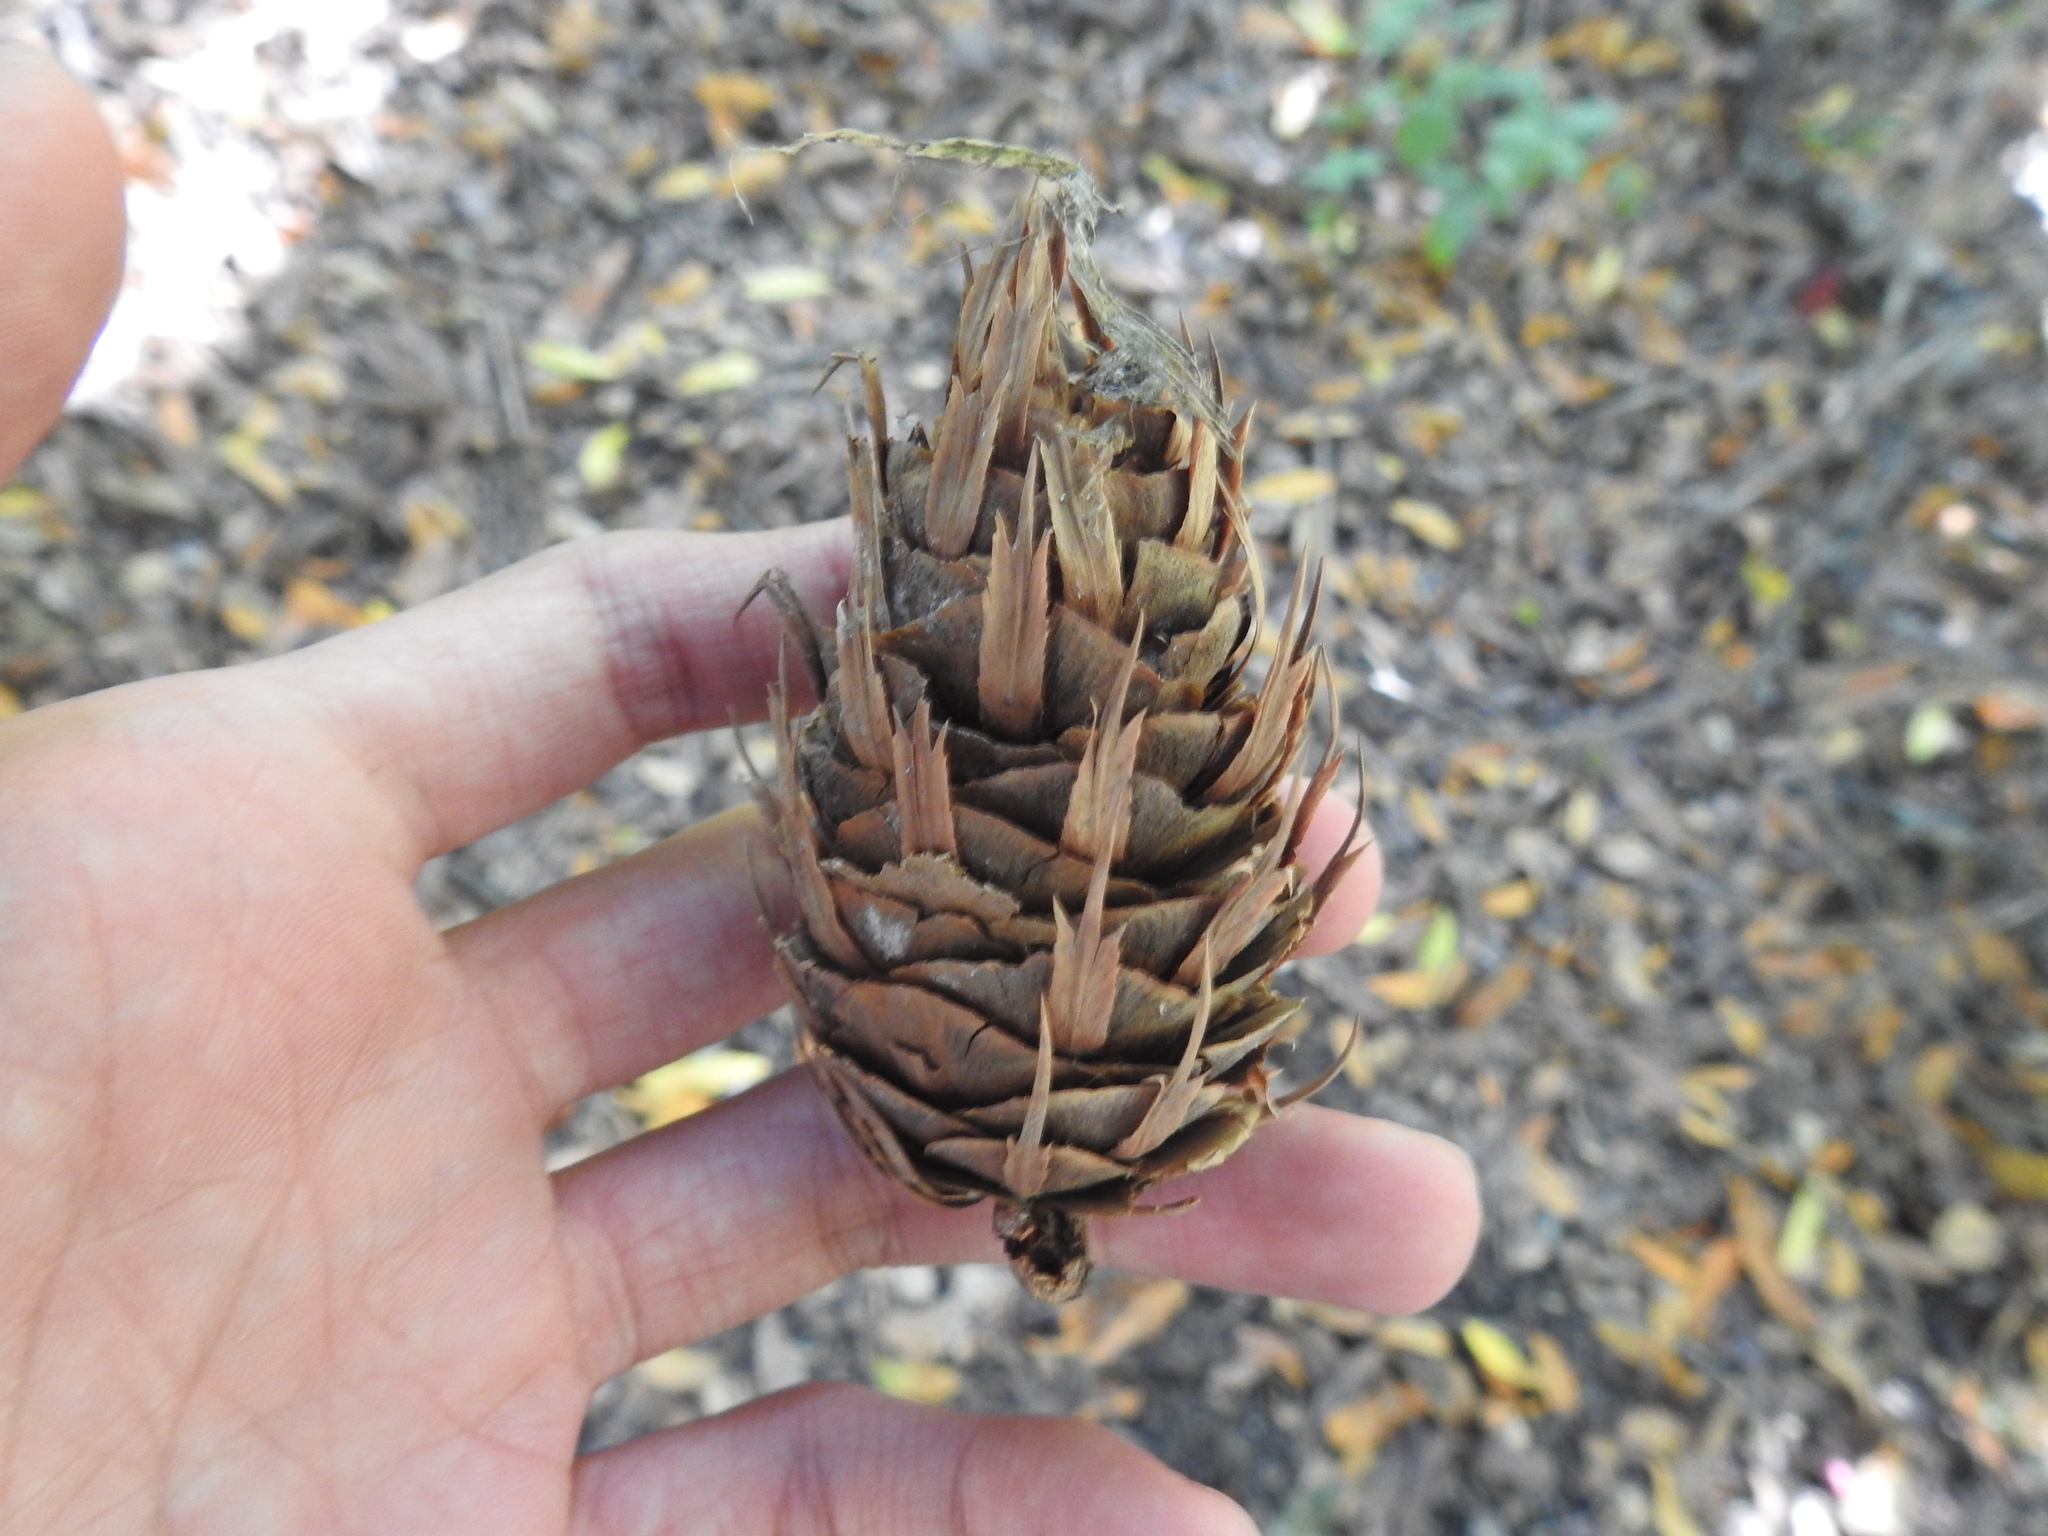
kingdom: Plantae
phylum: Tracheophyta
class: Pinopsida
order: Pinales
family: Pinaceae
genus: Pseudotsuga
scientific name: Pseudotsuga menziesii
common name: Douglas fir
